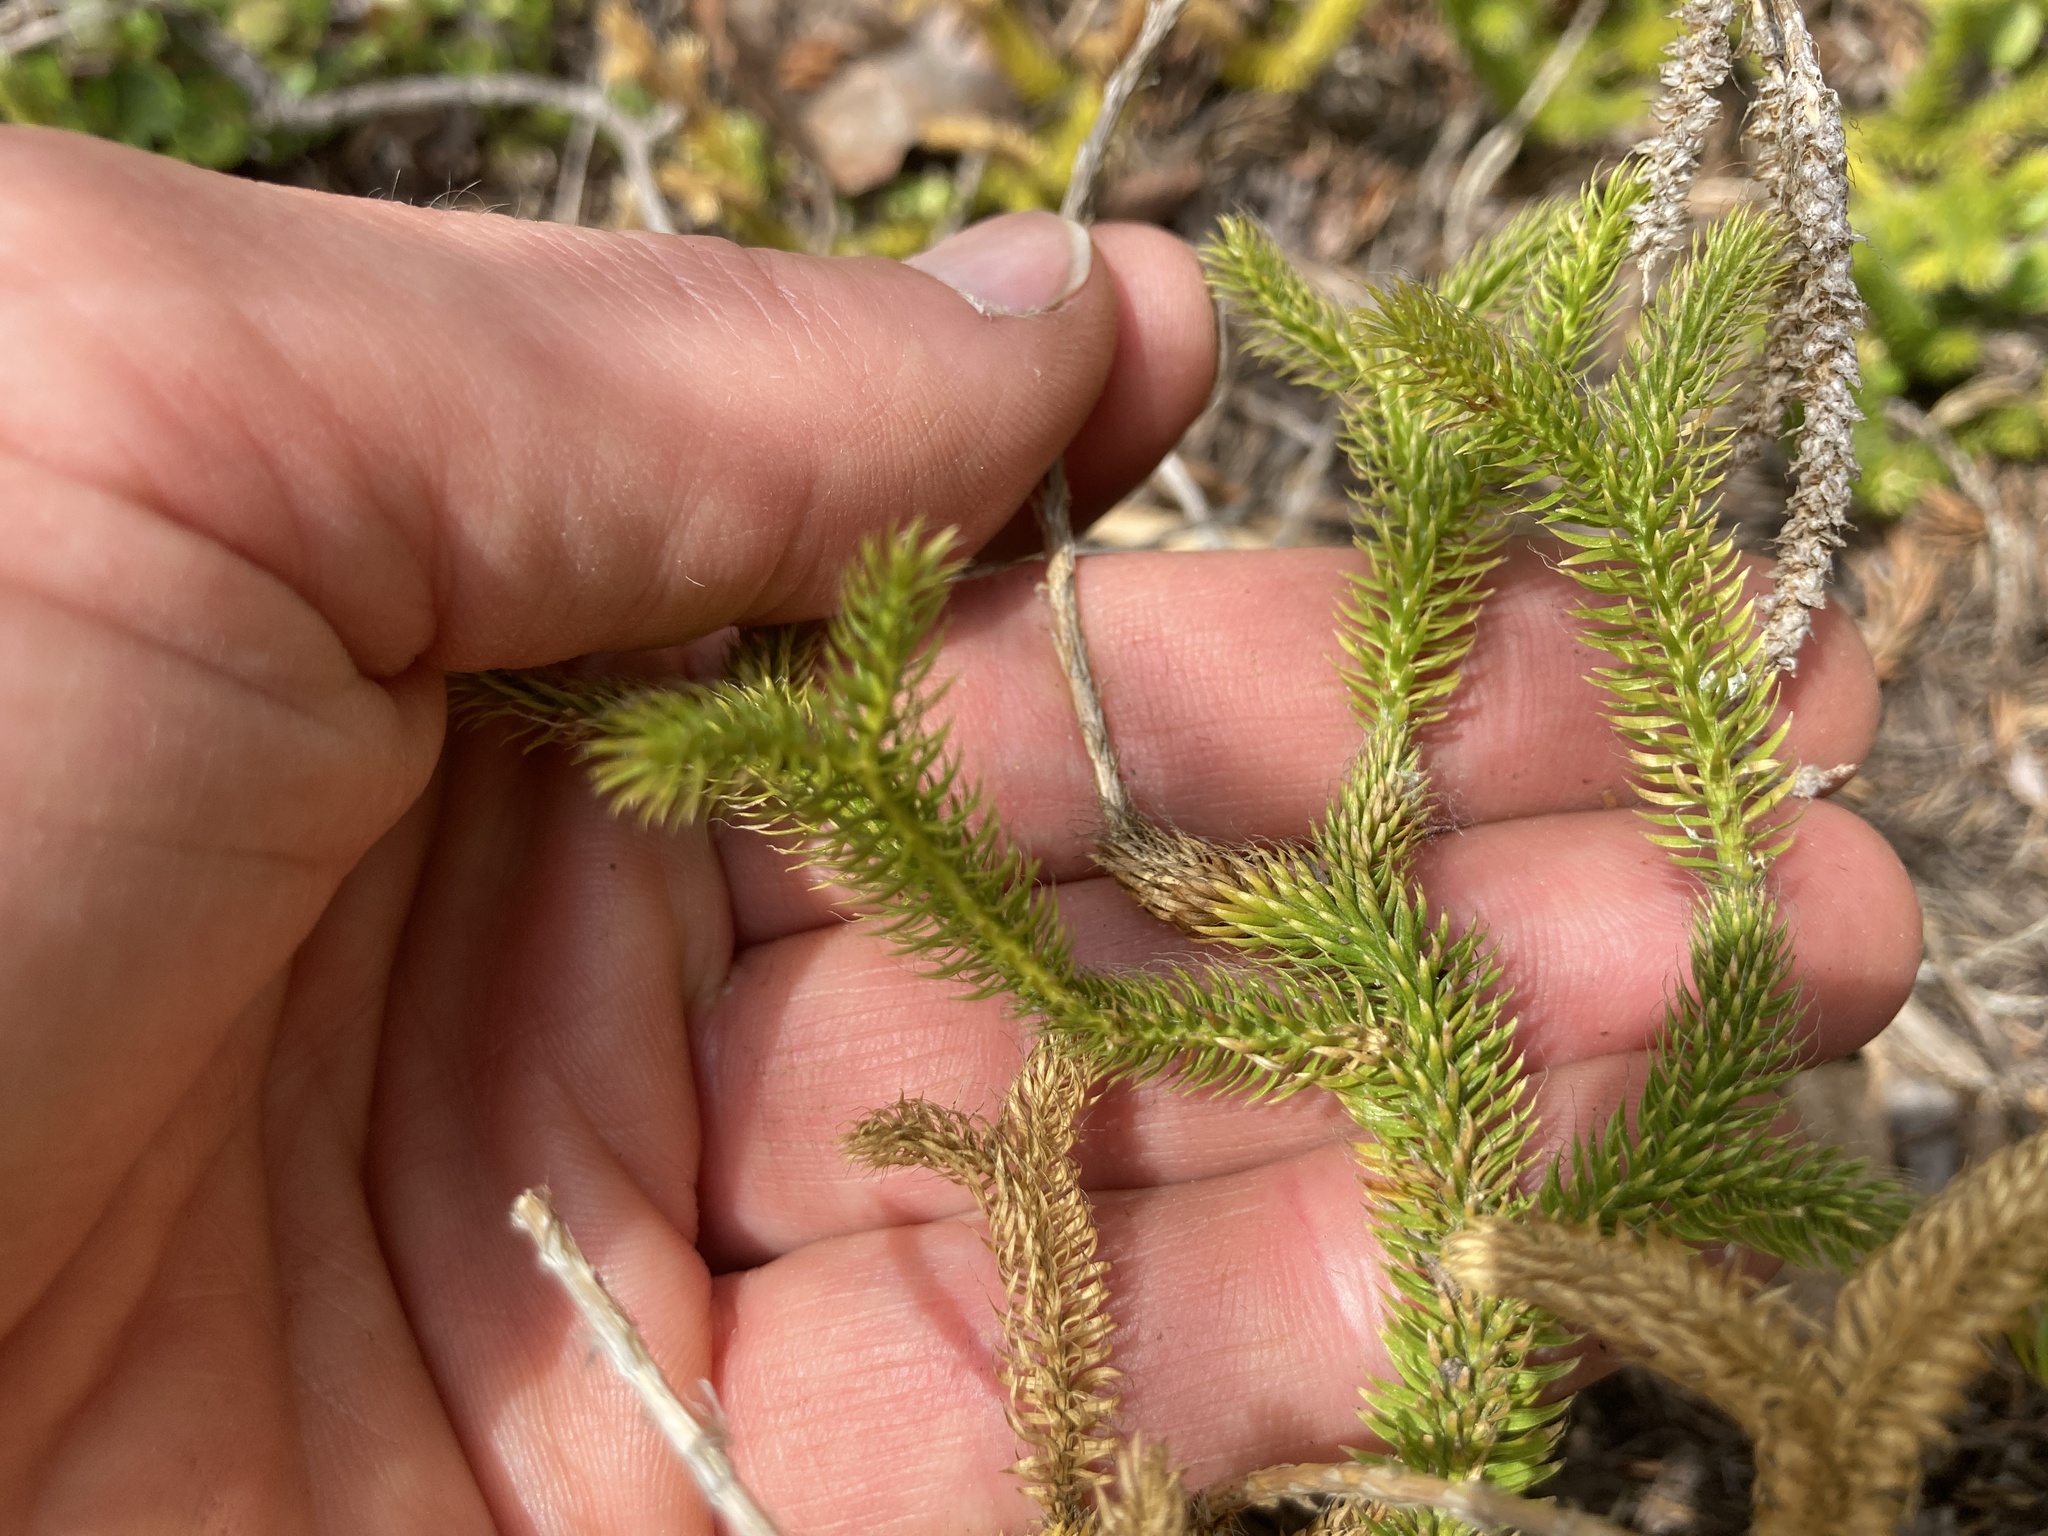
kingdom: Plantae
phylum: Tracheophyta
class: Lycopodiopsida
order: Lycopodiales
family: Lycopodiaceae
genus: Lycopodium
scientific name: Lycopodium clavatum
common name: Stag's-horn clubmoss
